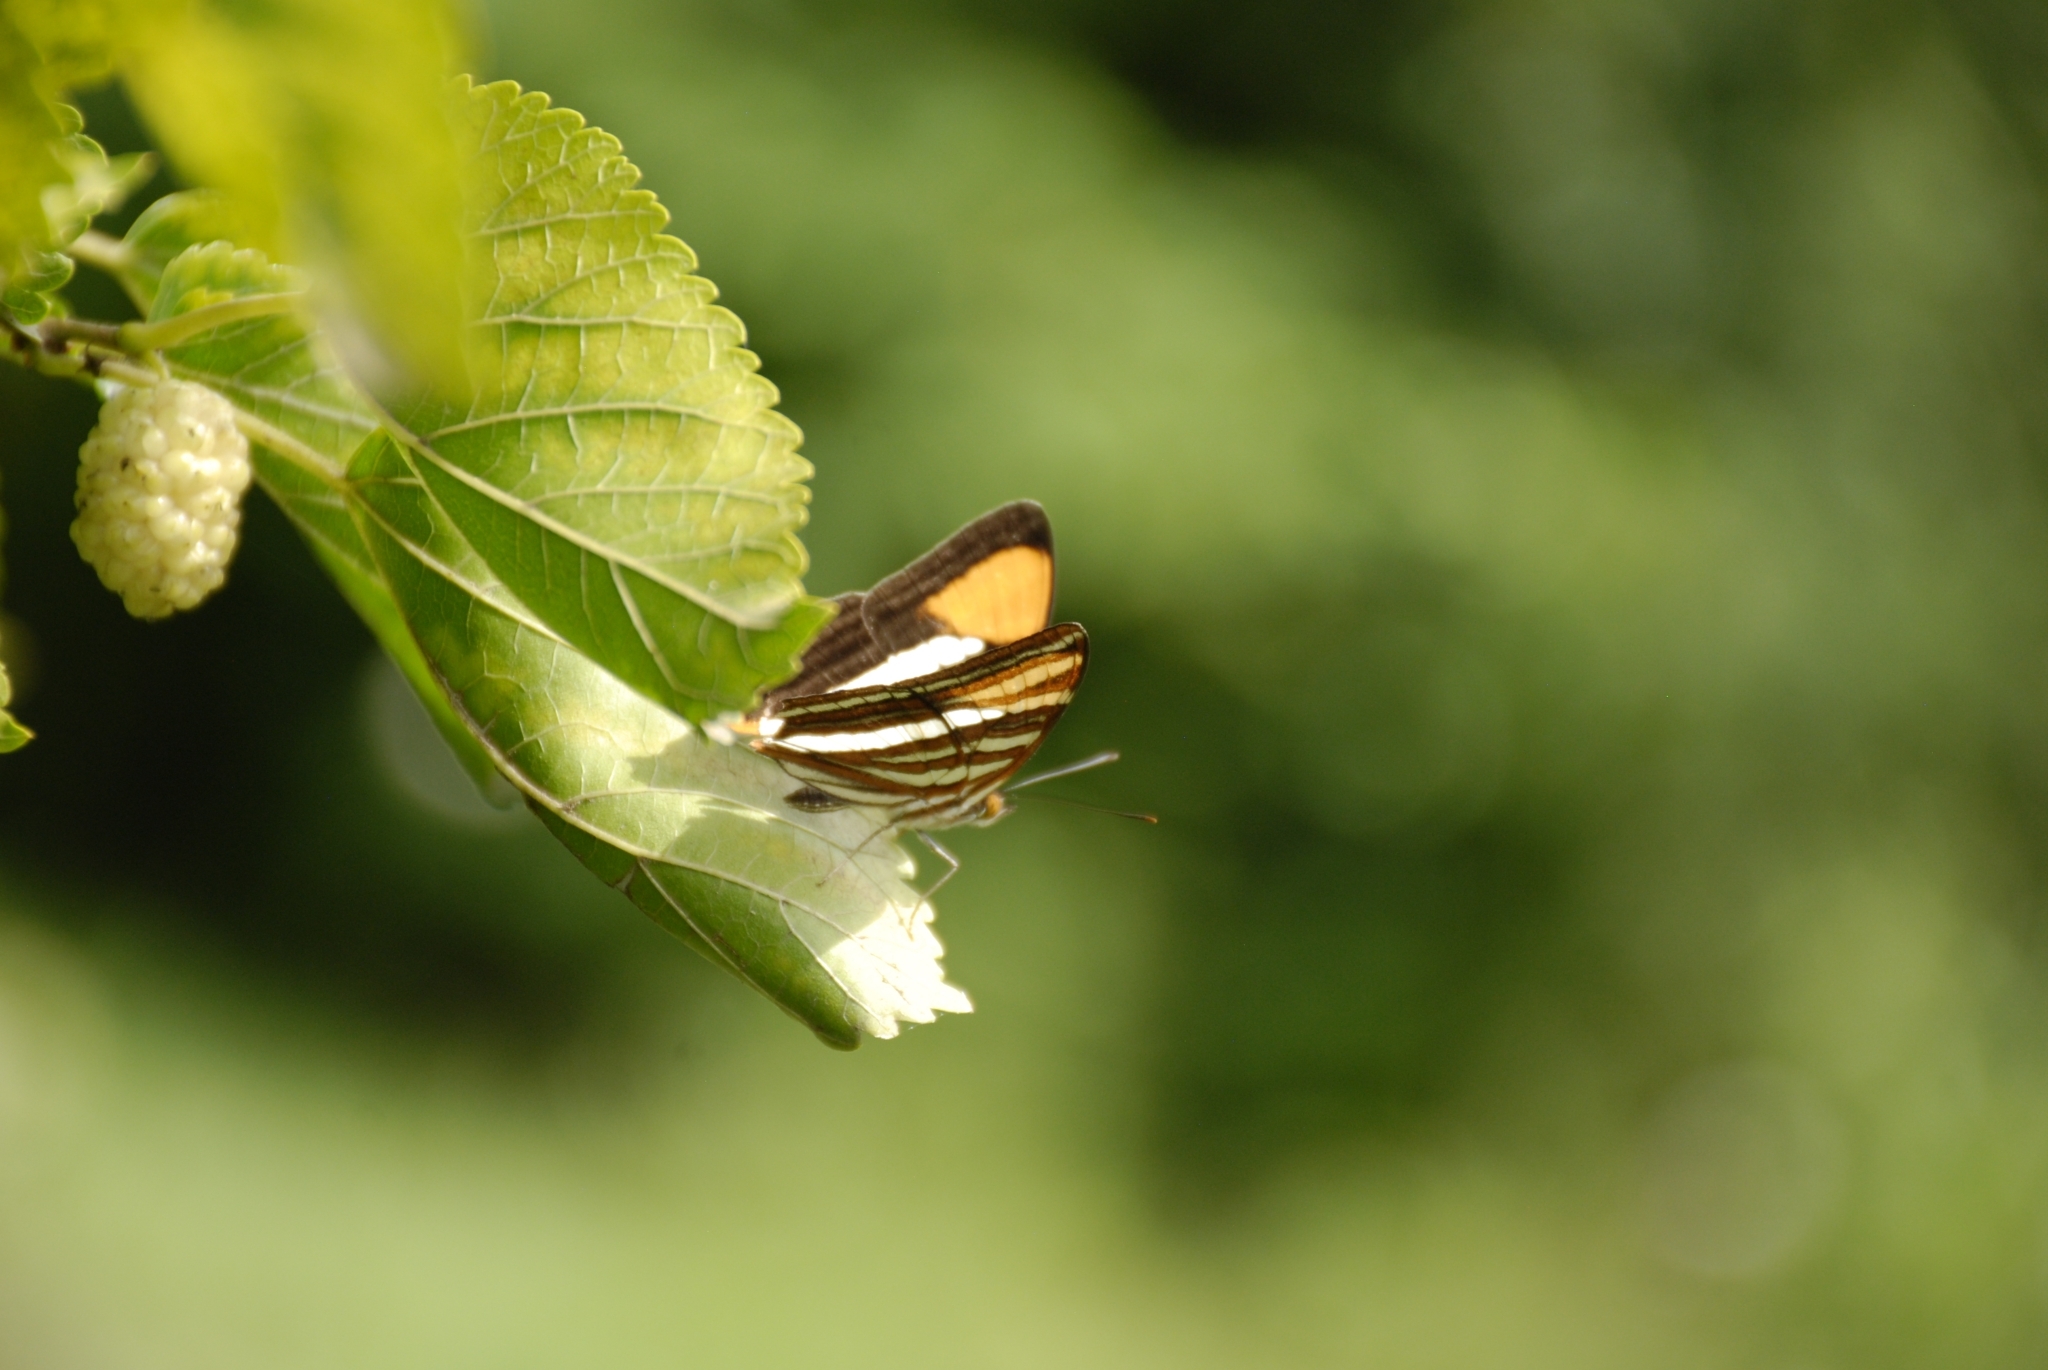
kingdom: Animalia
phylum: Arthropoda
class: Insecta
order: Lepidoptera
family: Nymphalidae
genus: Limenitis
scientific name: Limenitis syma
